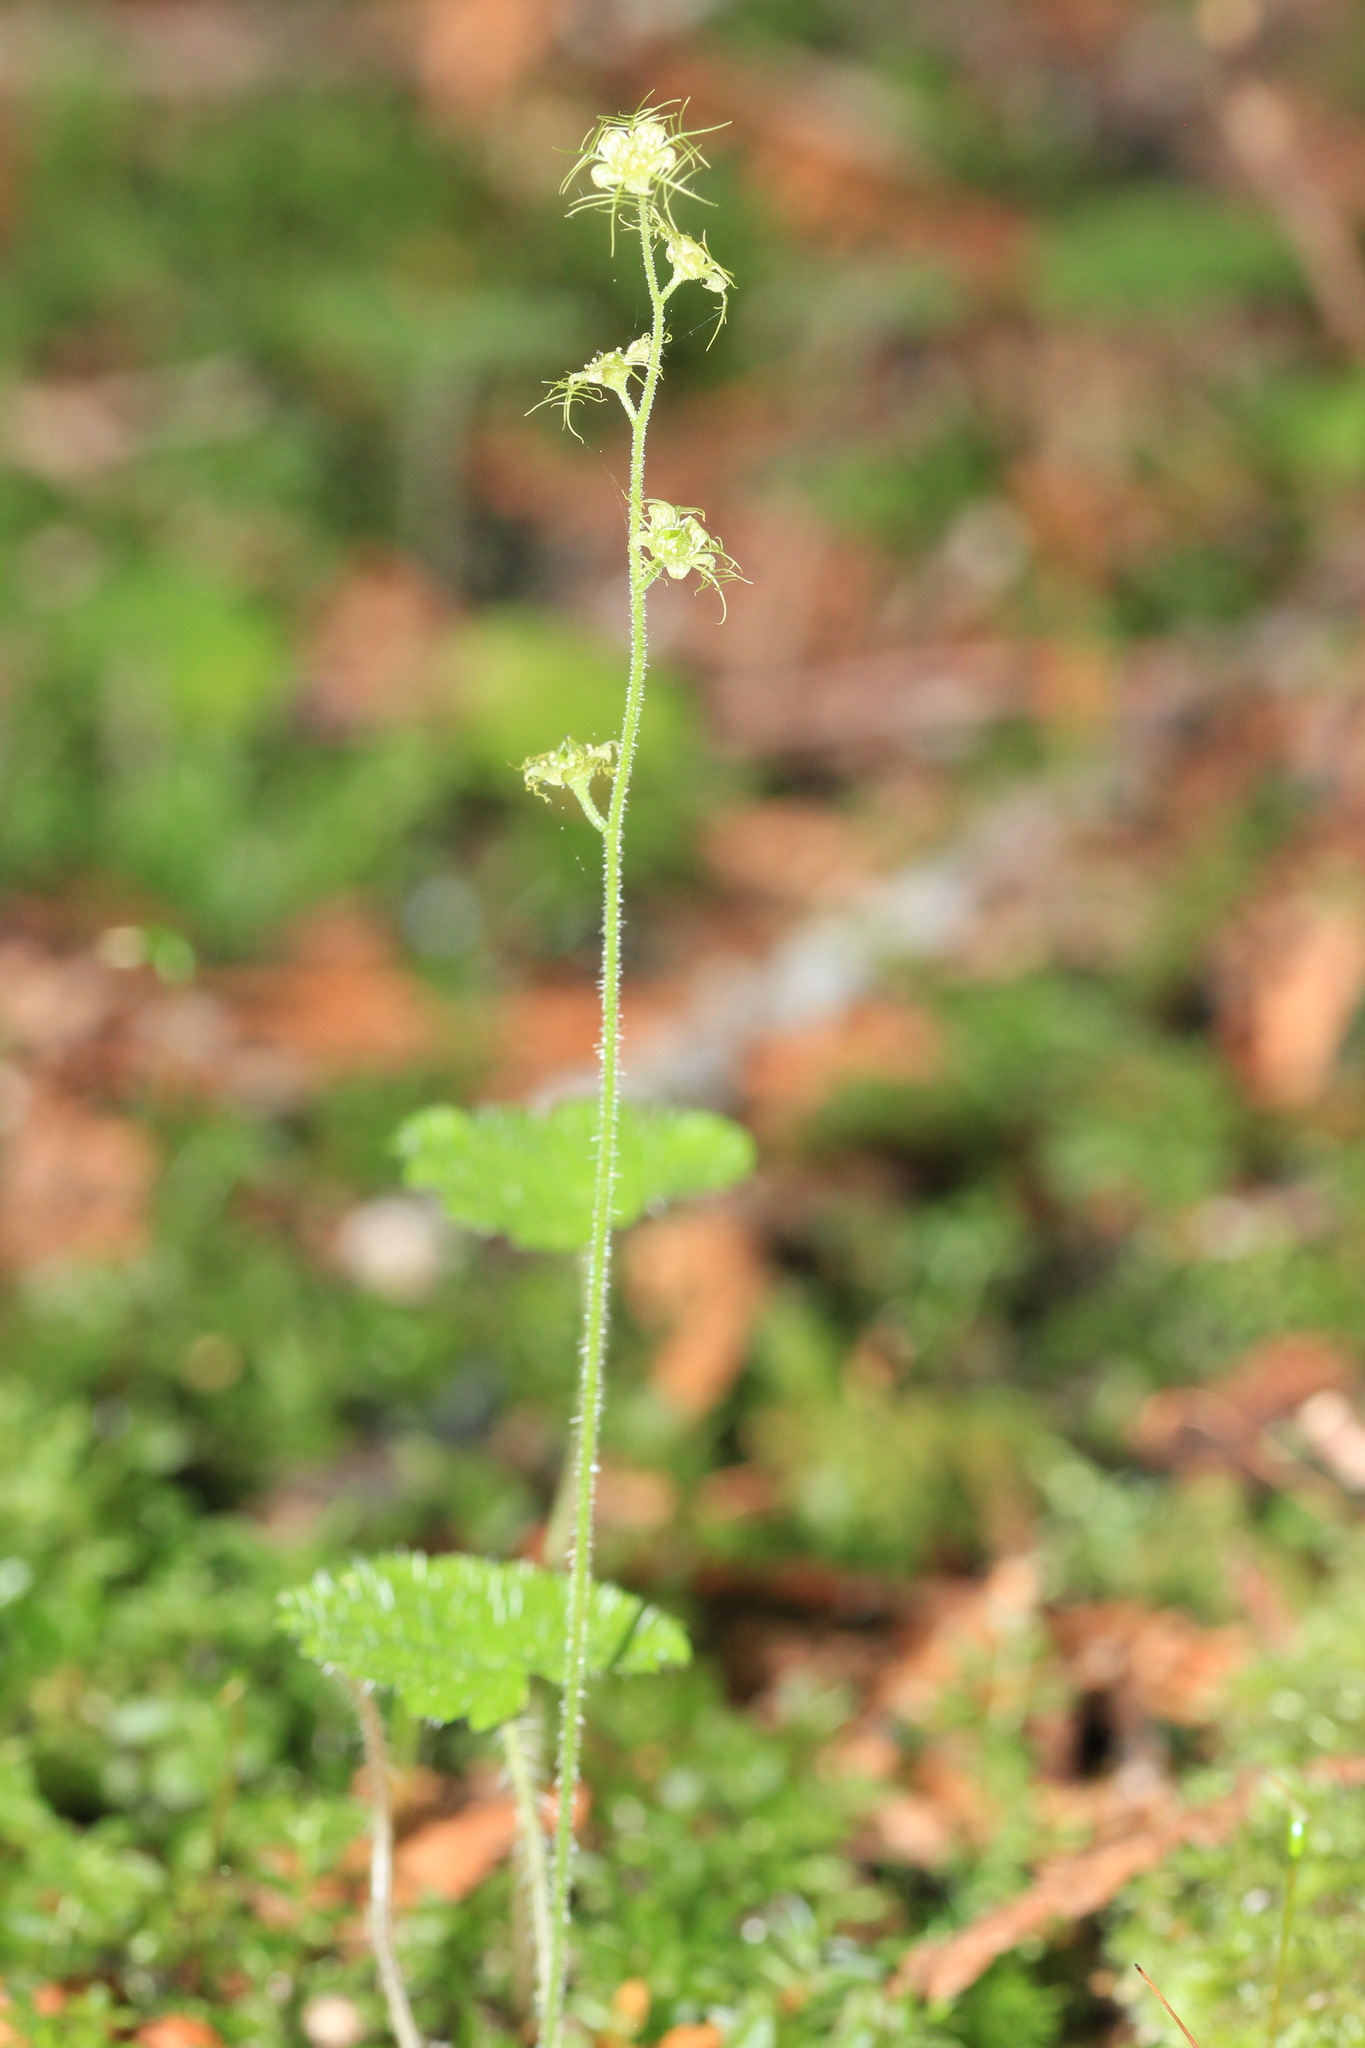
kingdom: Plantae
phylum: Tracheophyta
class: Magnoliopsida
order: Saxifragales
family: Saxifragaceae
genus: Mitella
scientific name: Mitella nuda
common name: Bare-stemmed bishop's-cap
